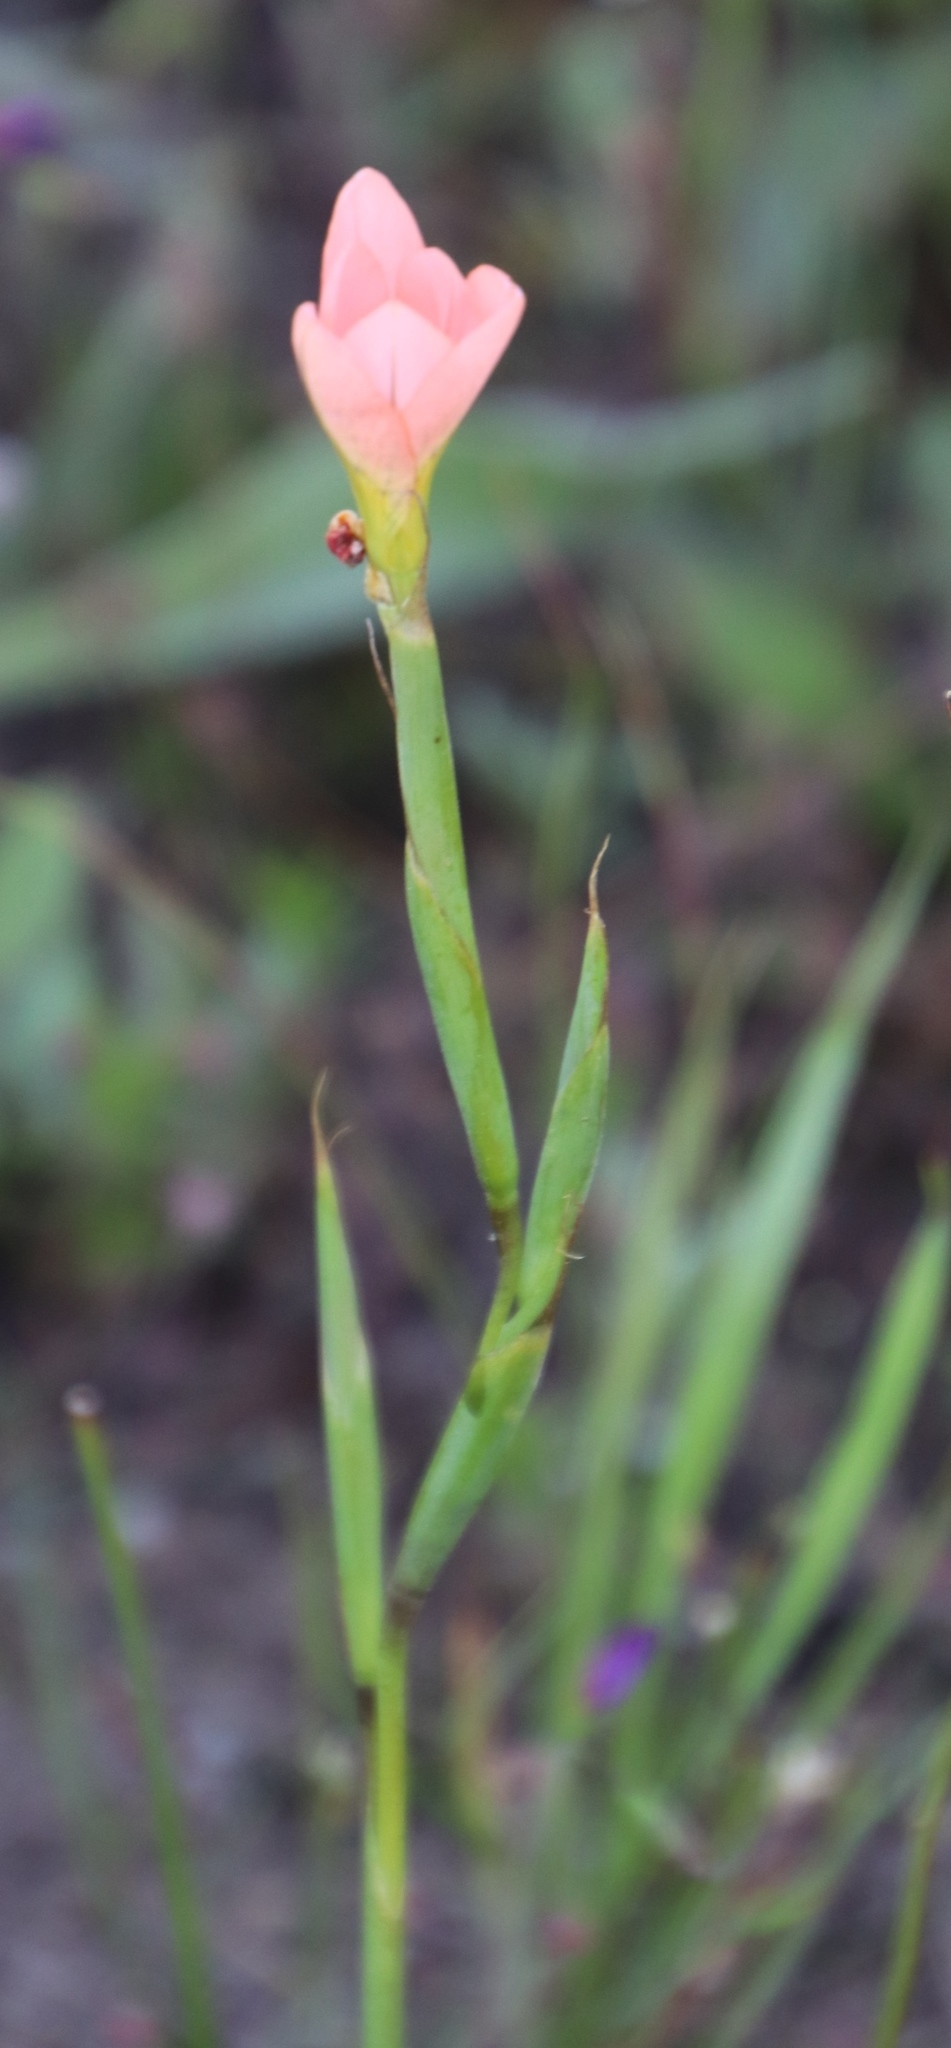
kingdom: Plantae
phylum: Tracheophyta
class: Liliopsida
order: Asparagales
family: Iridaceae
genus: Moraea
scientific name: Moraea miniata
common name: Two-leaf cape-tulip
